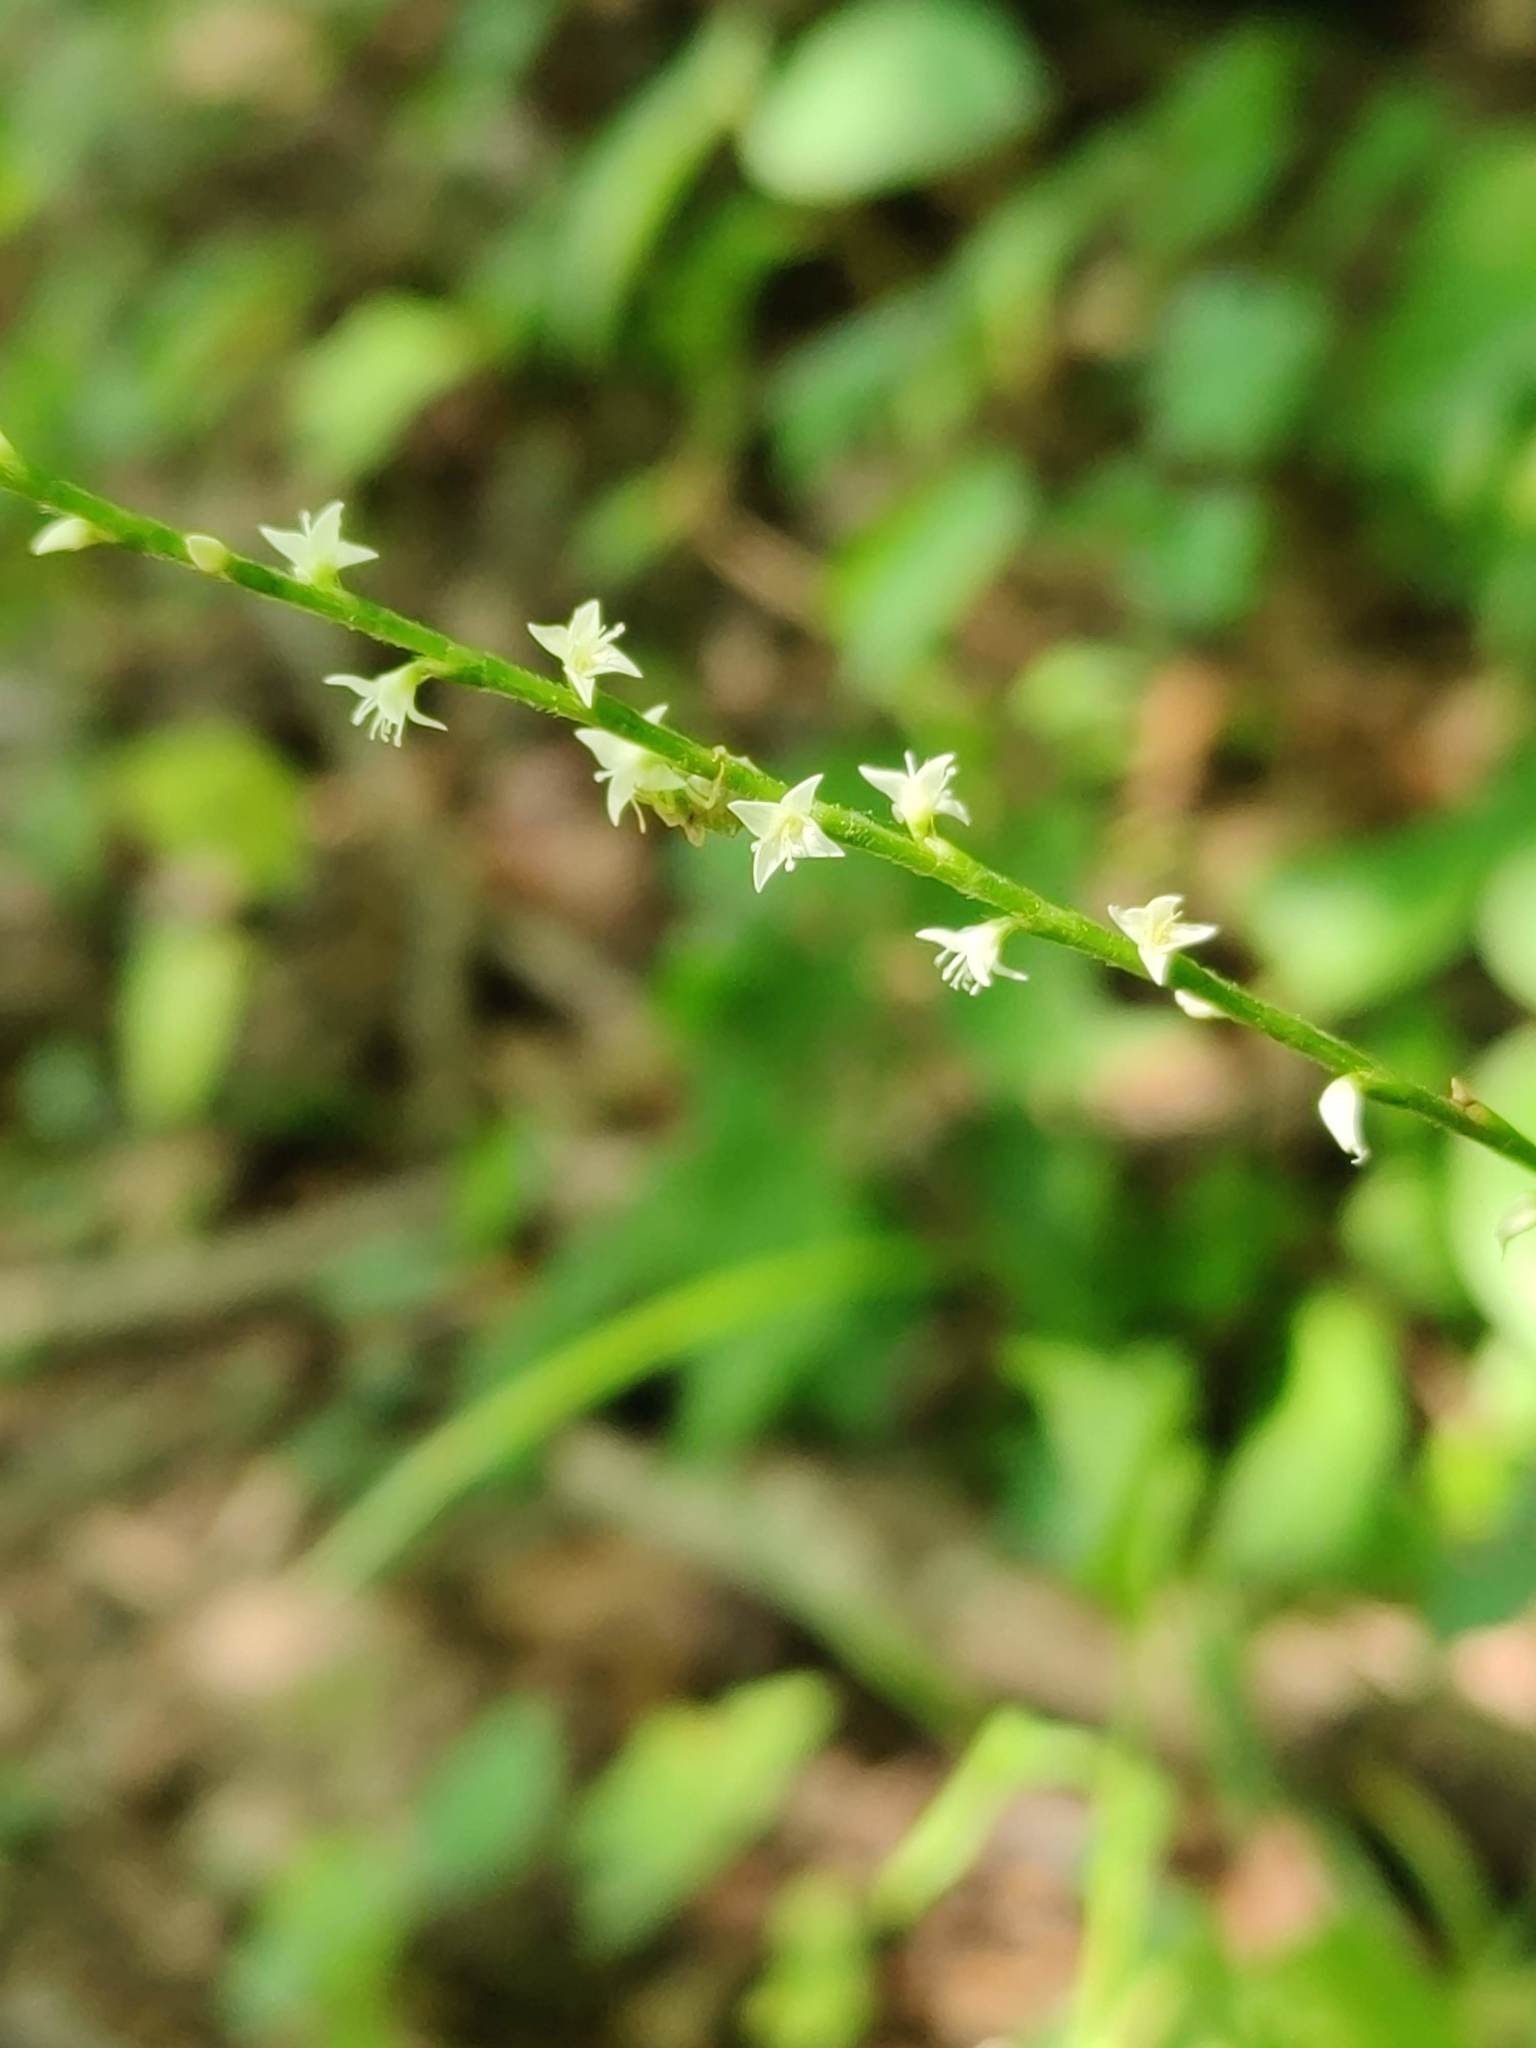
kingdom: Plantae
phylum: Tracheophyta
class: Magnoliopsida
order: Caryophyllales
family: Polygonaceae
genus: Persicaria
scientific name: Persicaria virginiana
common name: Jumpseed
